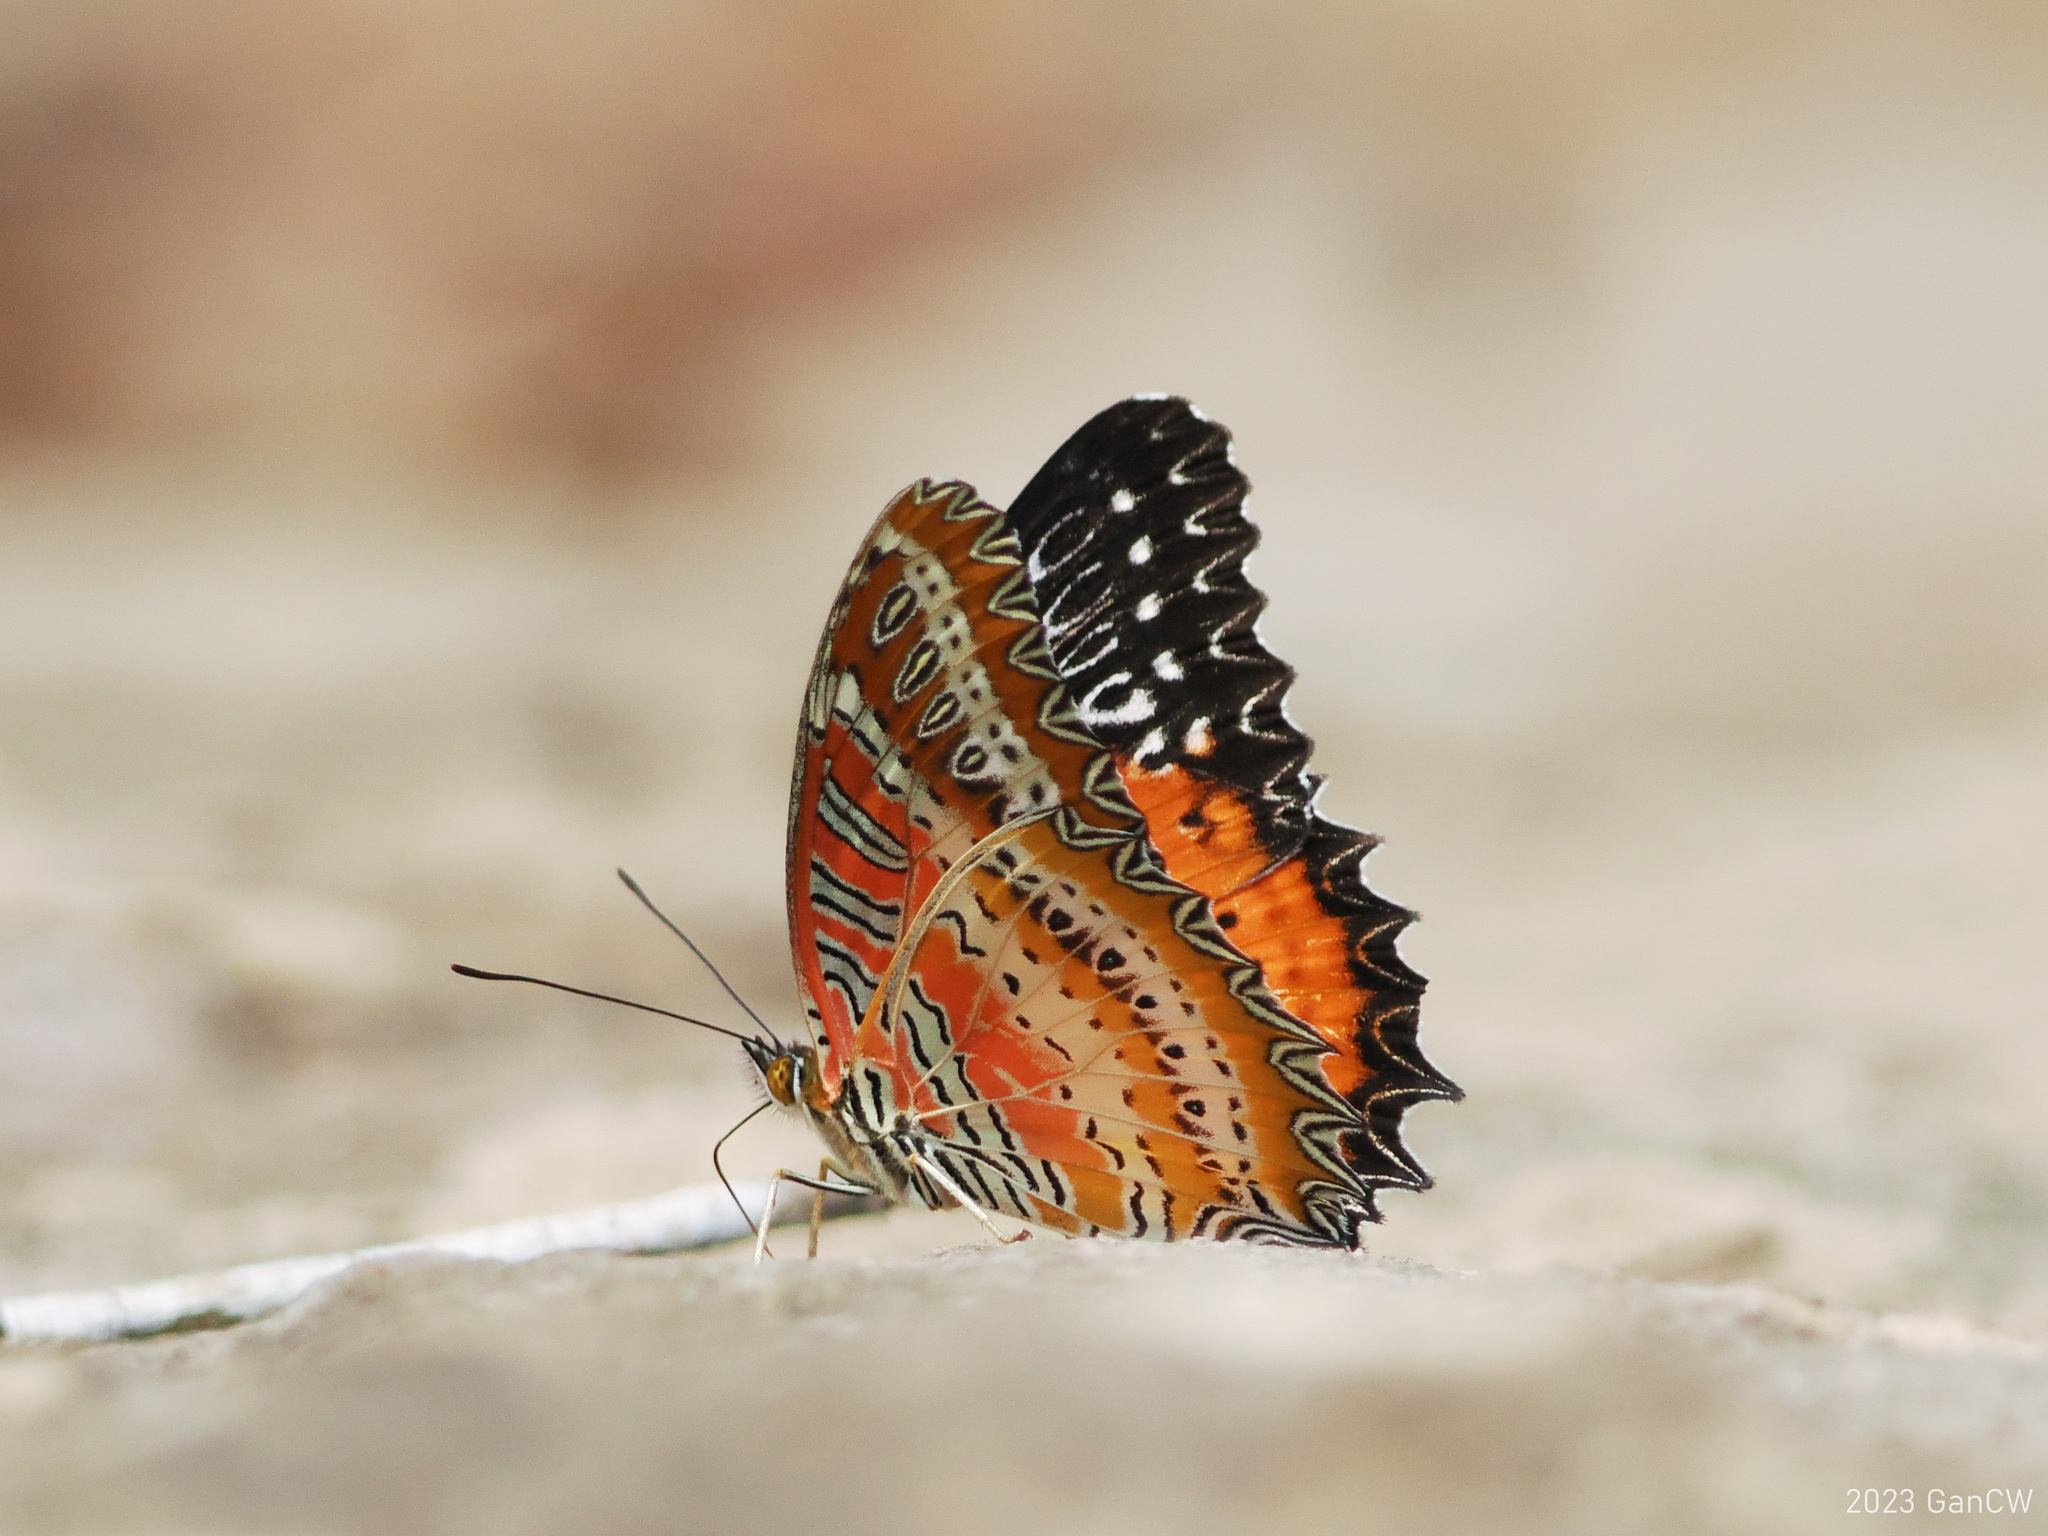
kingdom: Animalia
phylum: Arthropoda
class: Insecta
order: Lepidoptera
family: Nymphalidae
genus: Cethosia
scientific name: Cethosia biblis
